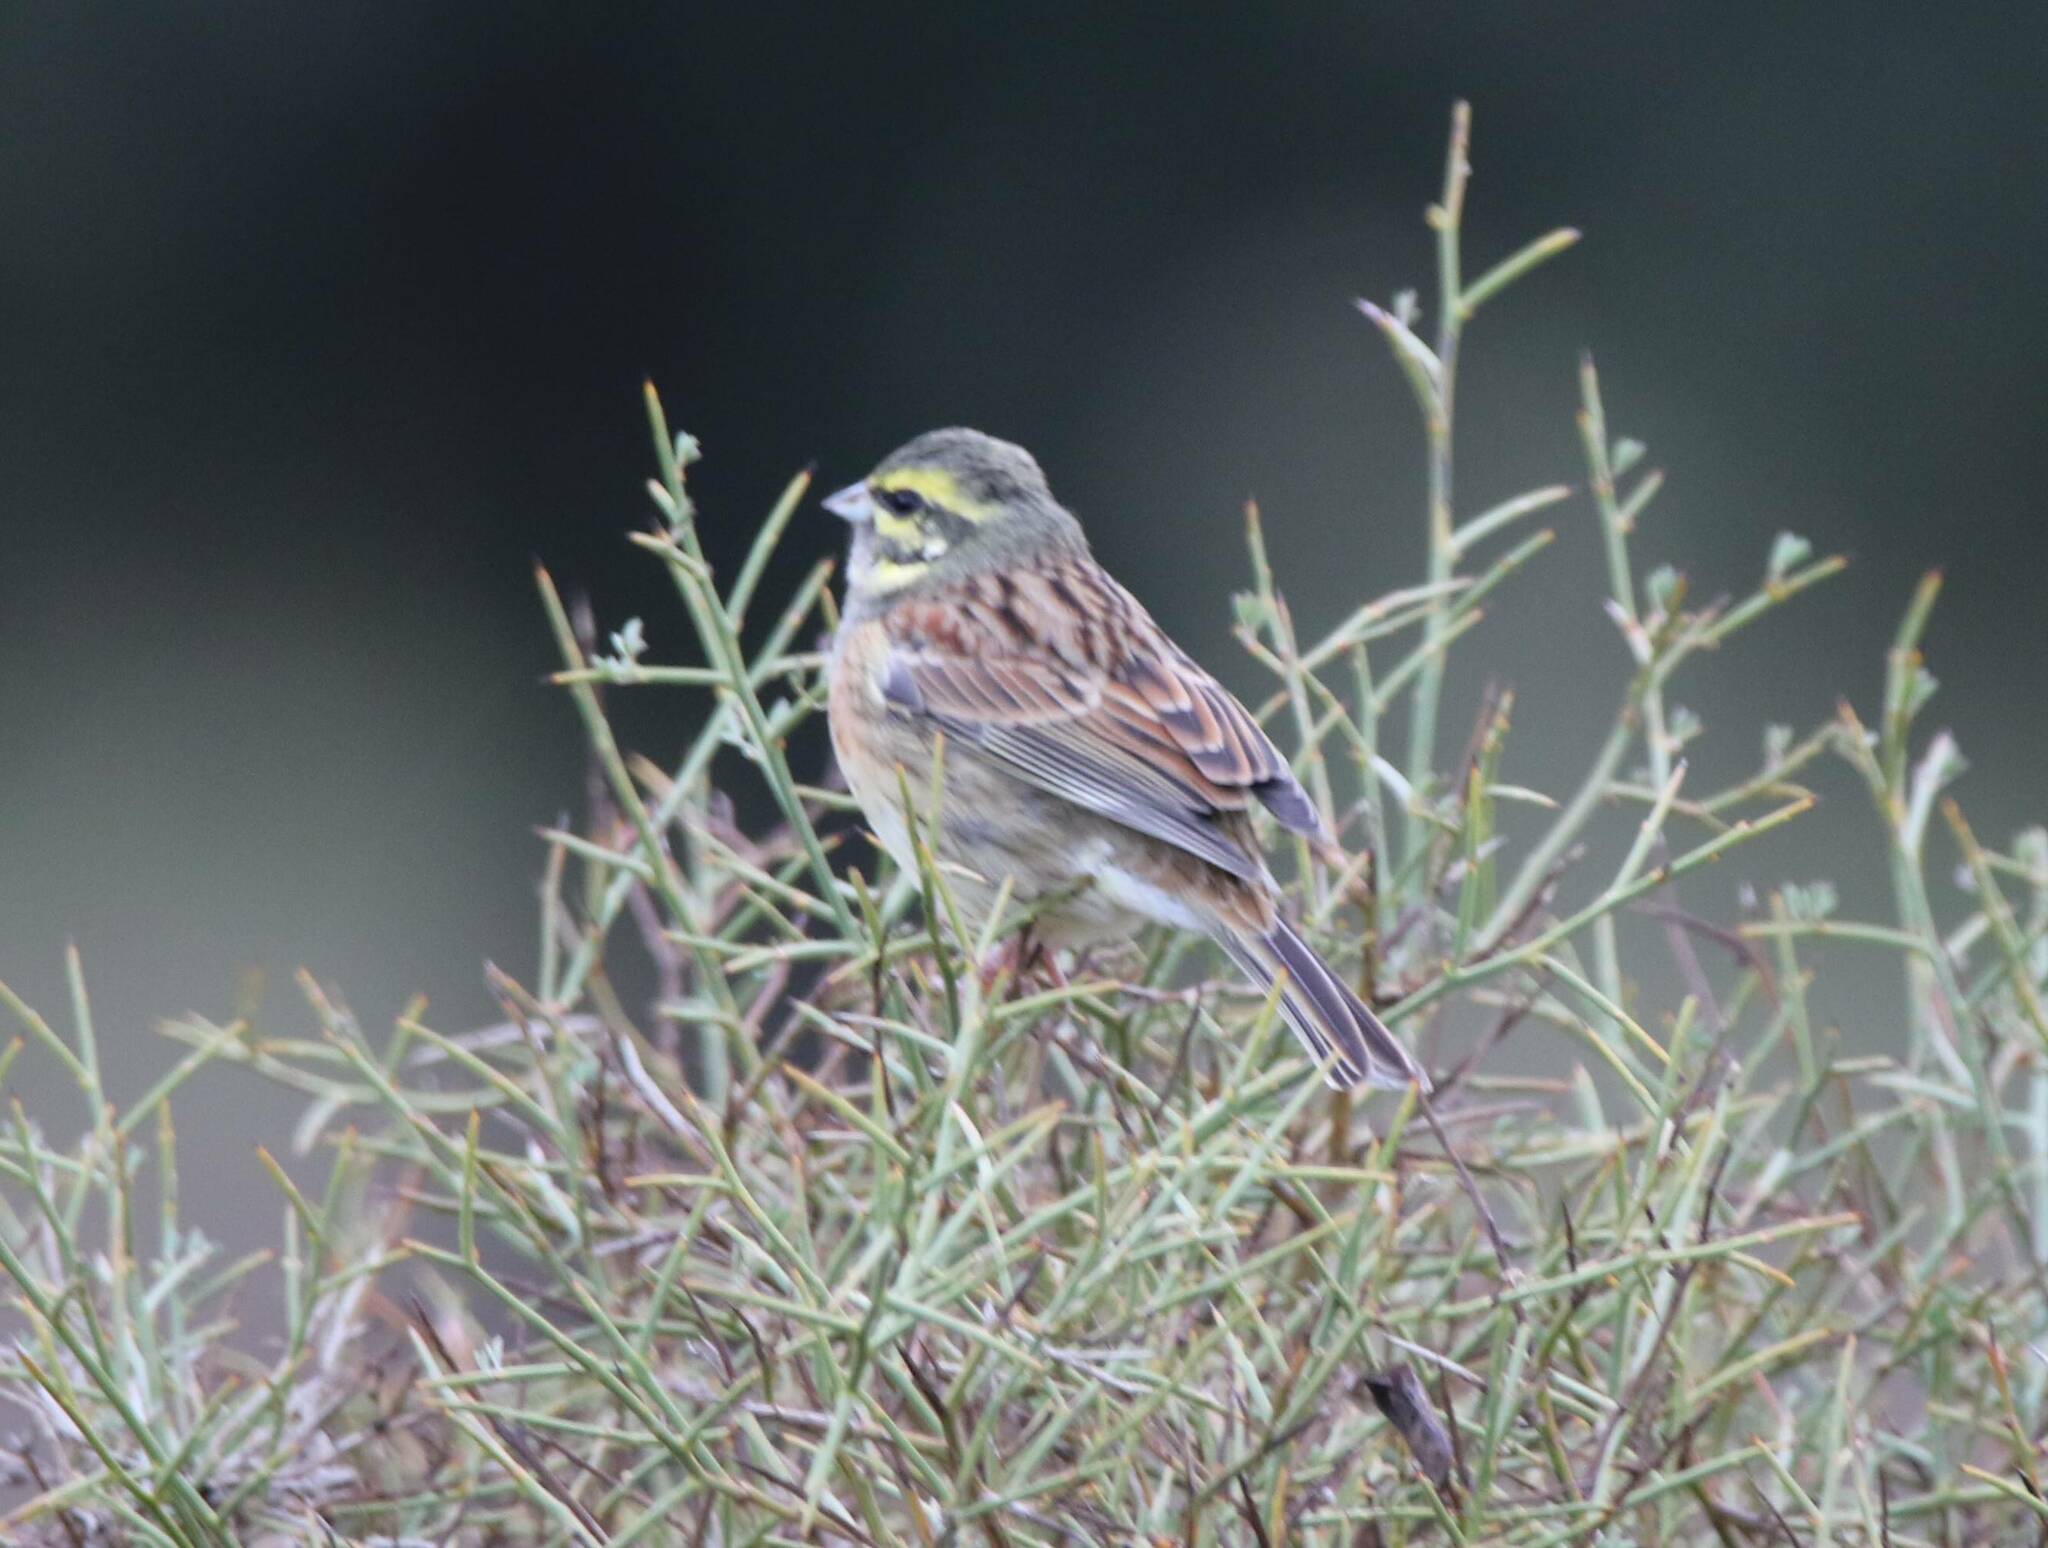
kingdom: Animalia
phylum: Chordata
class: Aves
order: Passeriformes
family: Emberizidae
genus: Emberiza
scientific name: Emberiza cirlus
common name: Cirl bunting
